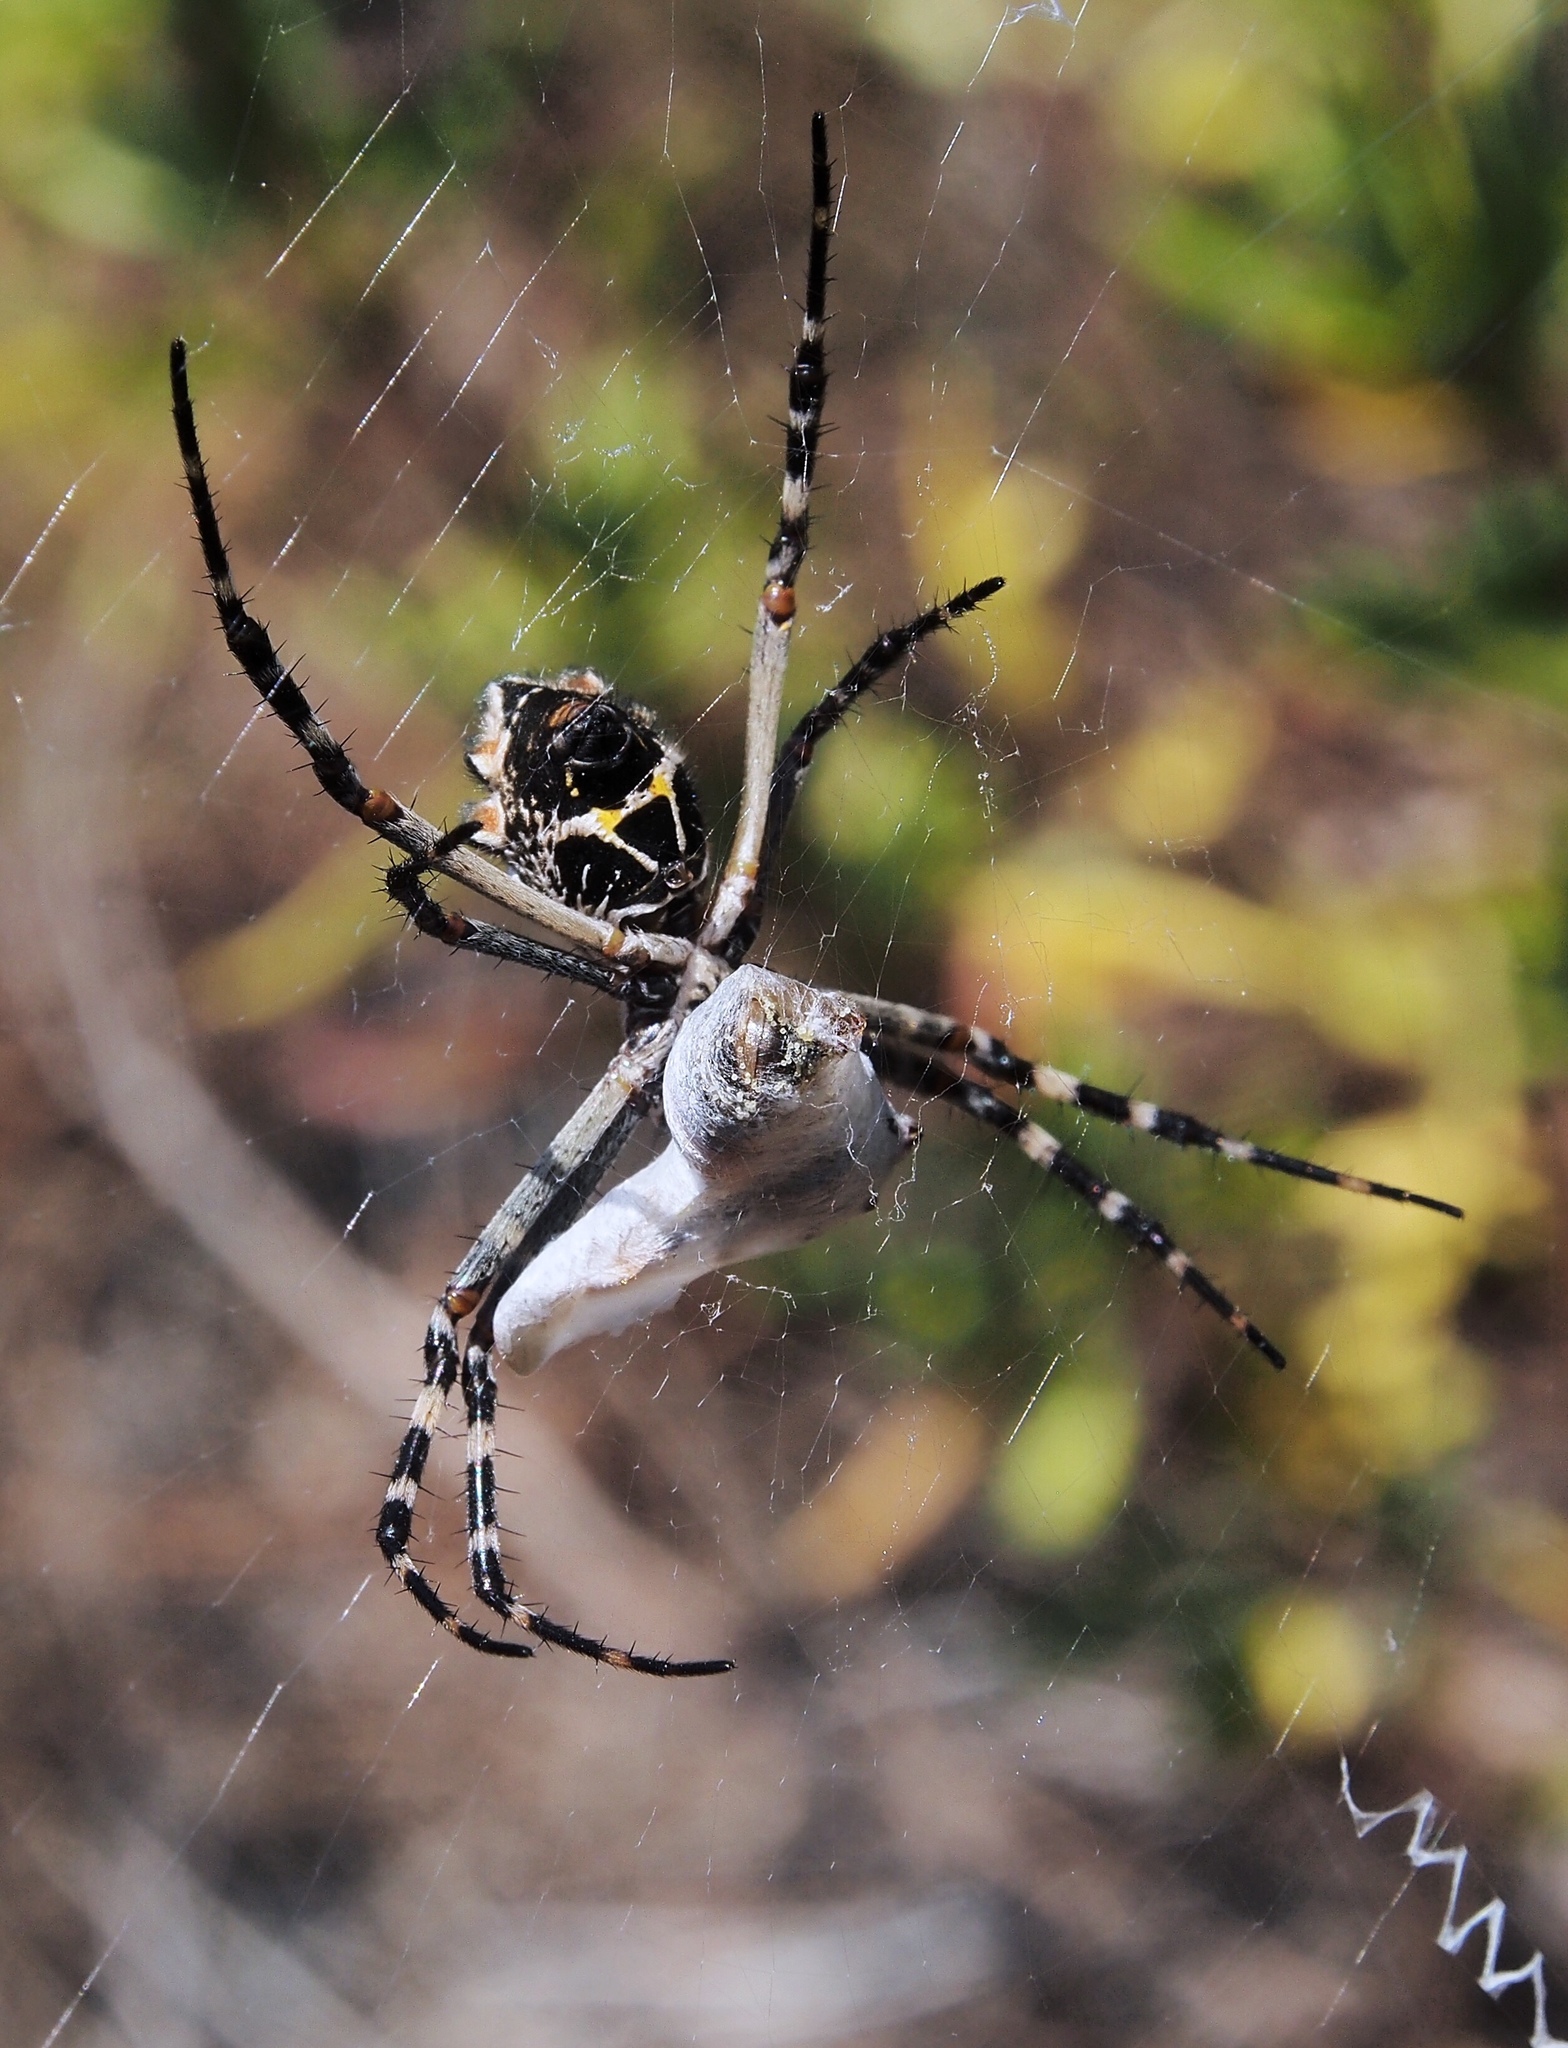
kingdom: Animalia
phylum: Arthropoda
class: Arachnida
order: Araneae
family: Araneidae
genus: Argiope
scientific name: Argiope argentata
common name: Orb weavers
